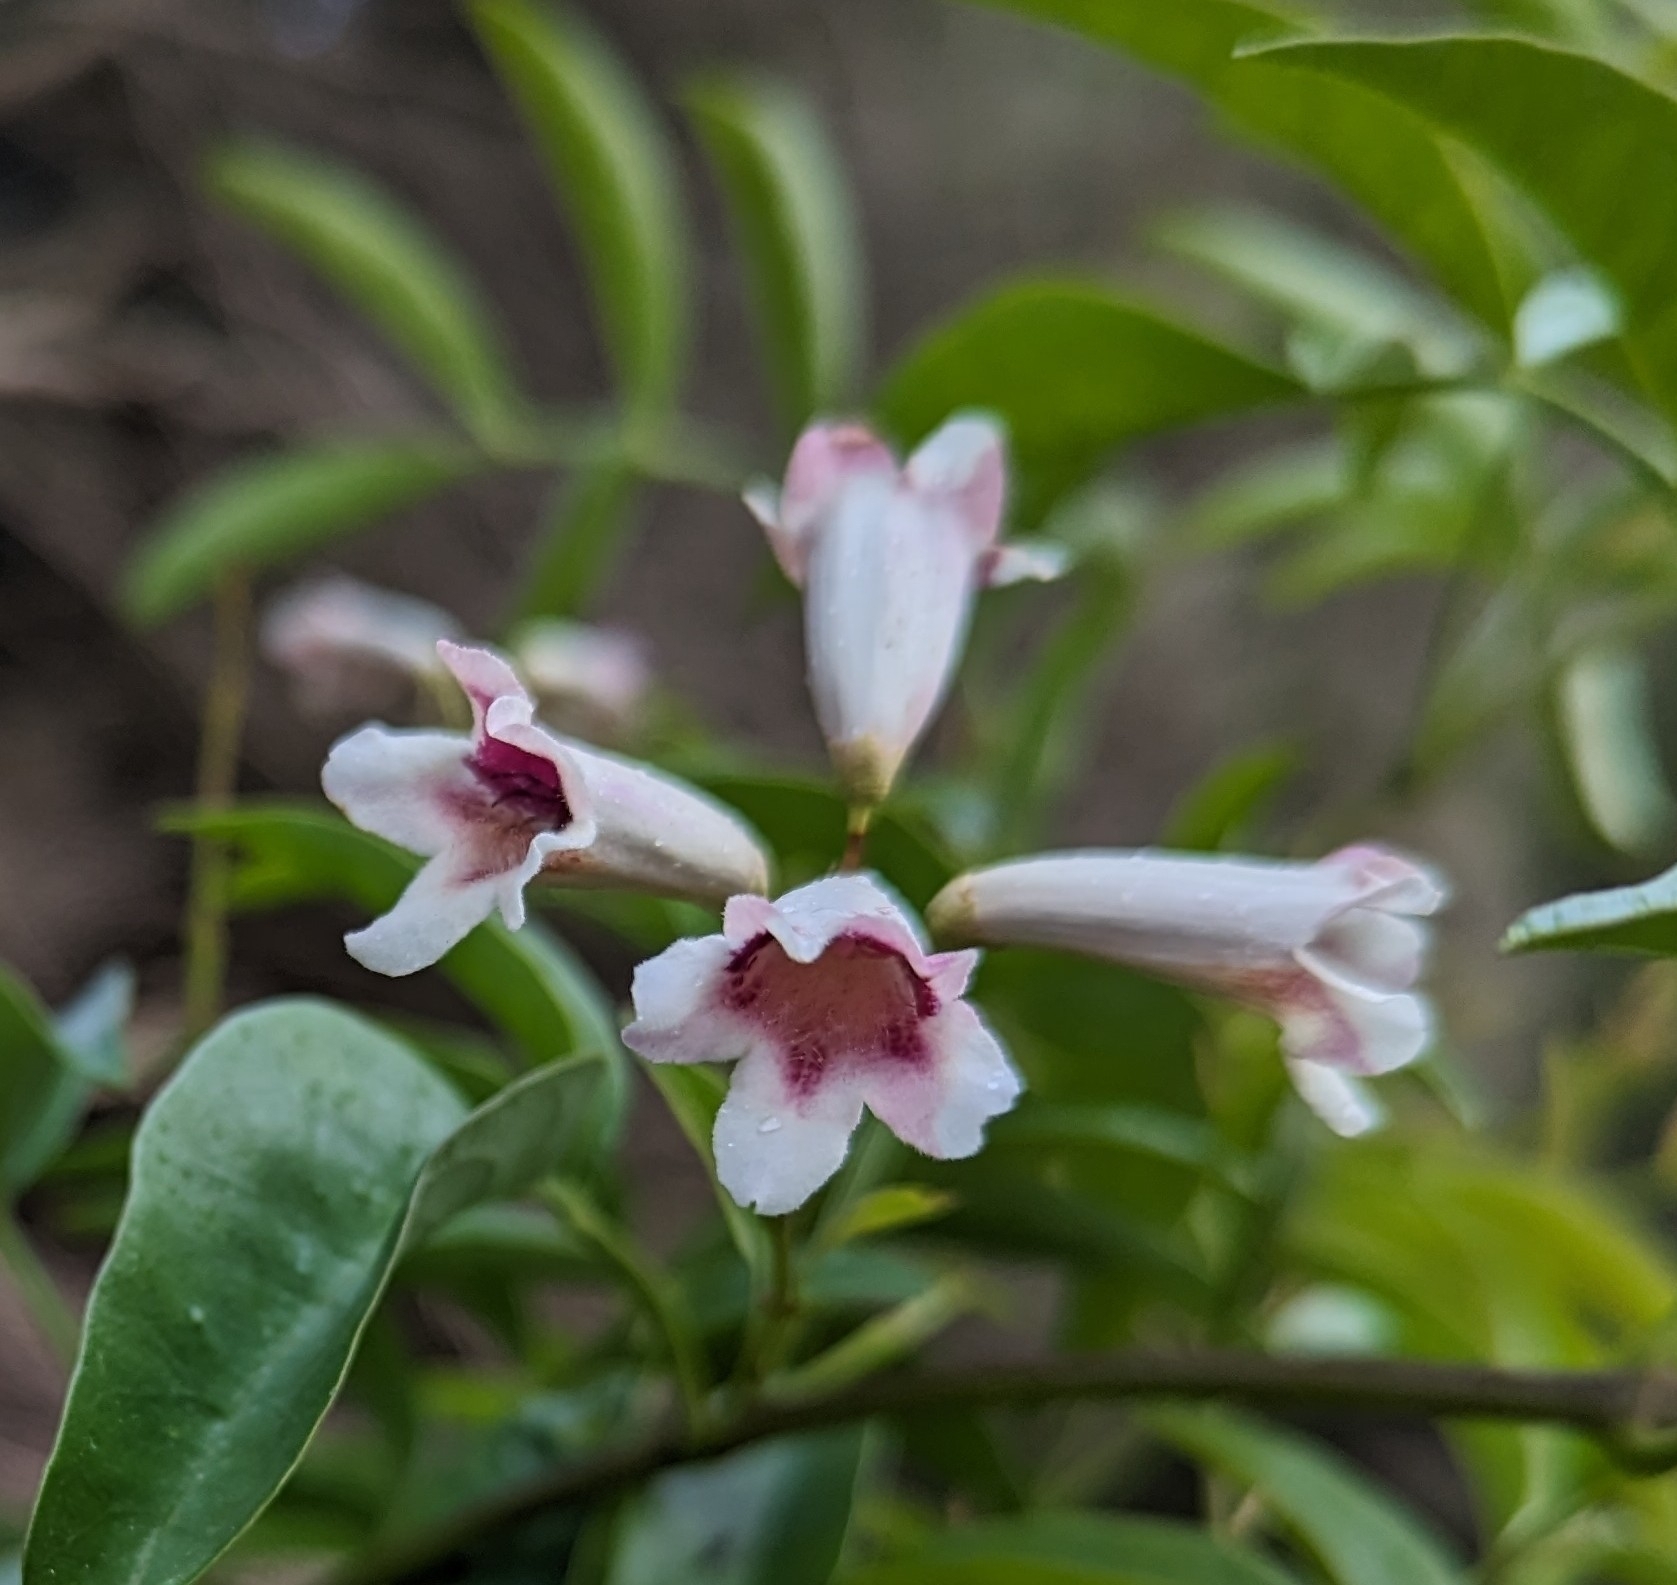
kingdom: Plantae
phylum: Tracheophyta
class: Magnoliopsida
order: Lamiales
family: Bignoniaceae
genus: Pandorea
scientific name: Pandorea pandorana
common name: Wonga-wonga-vine
